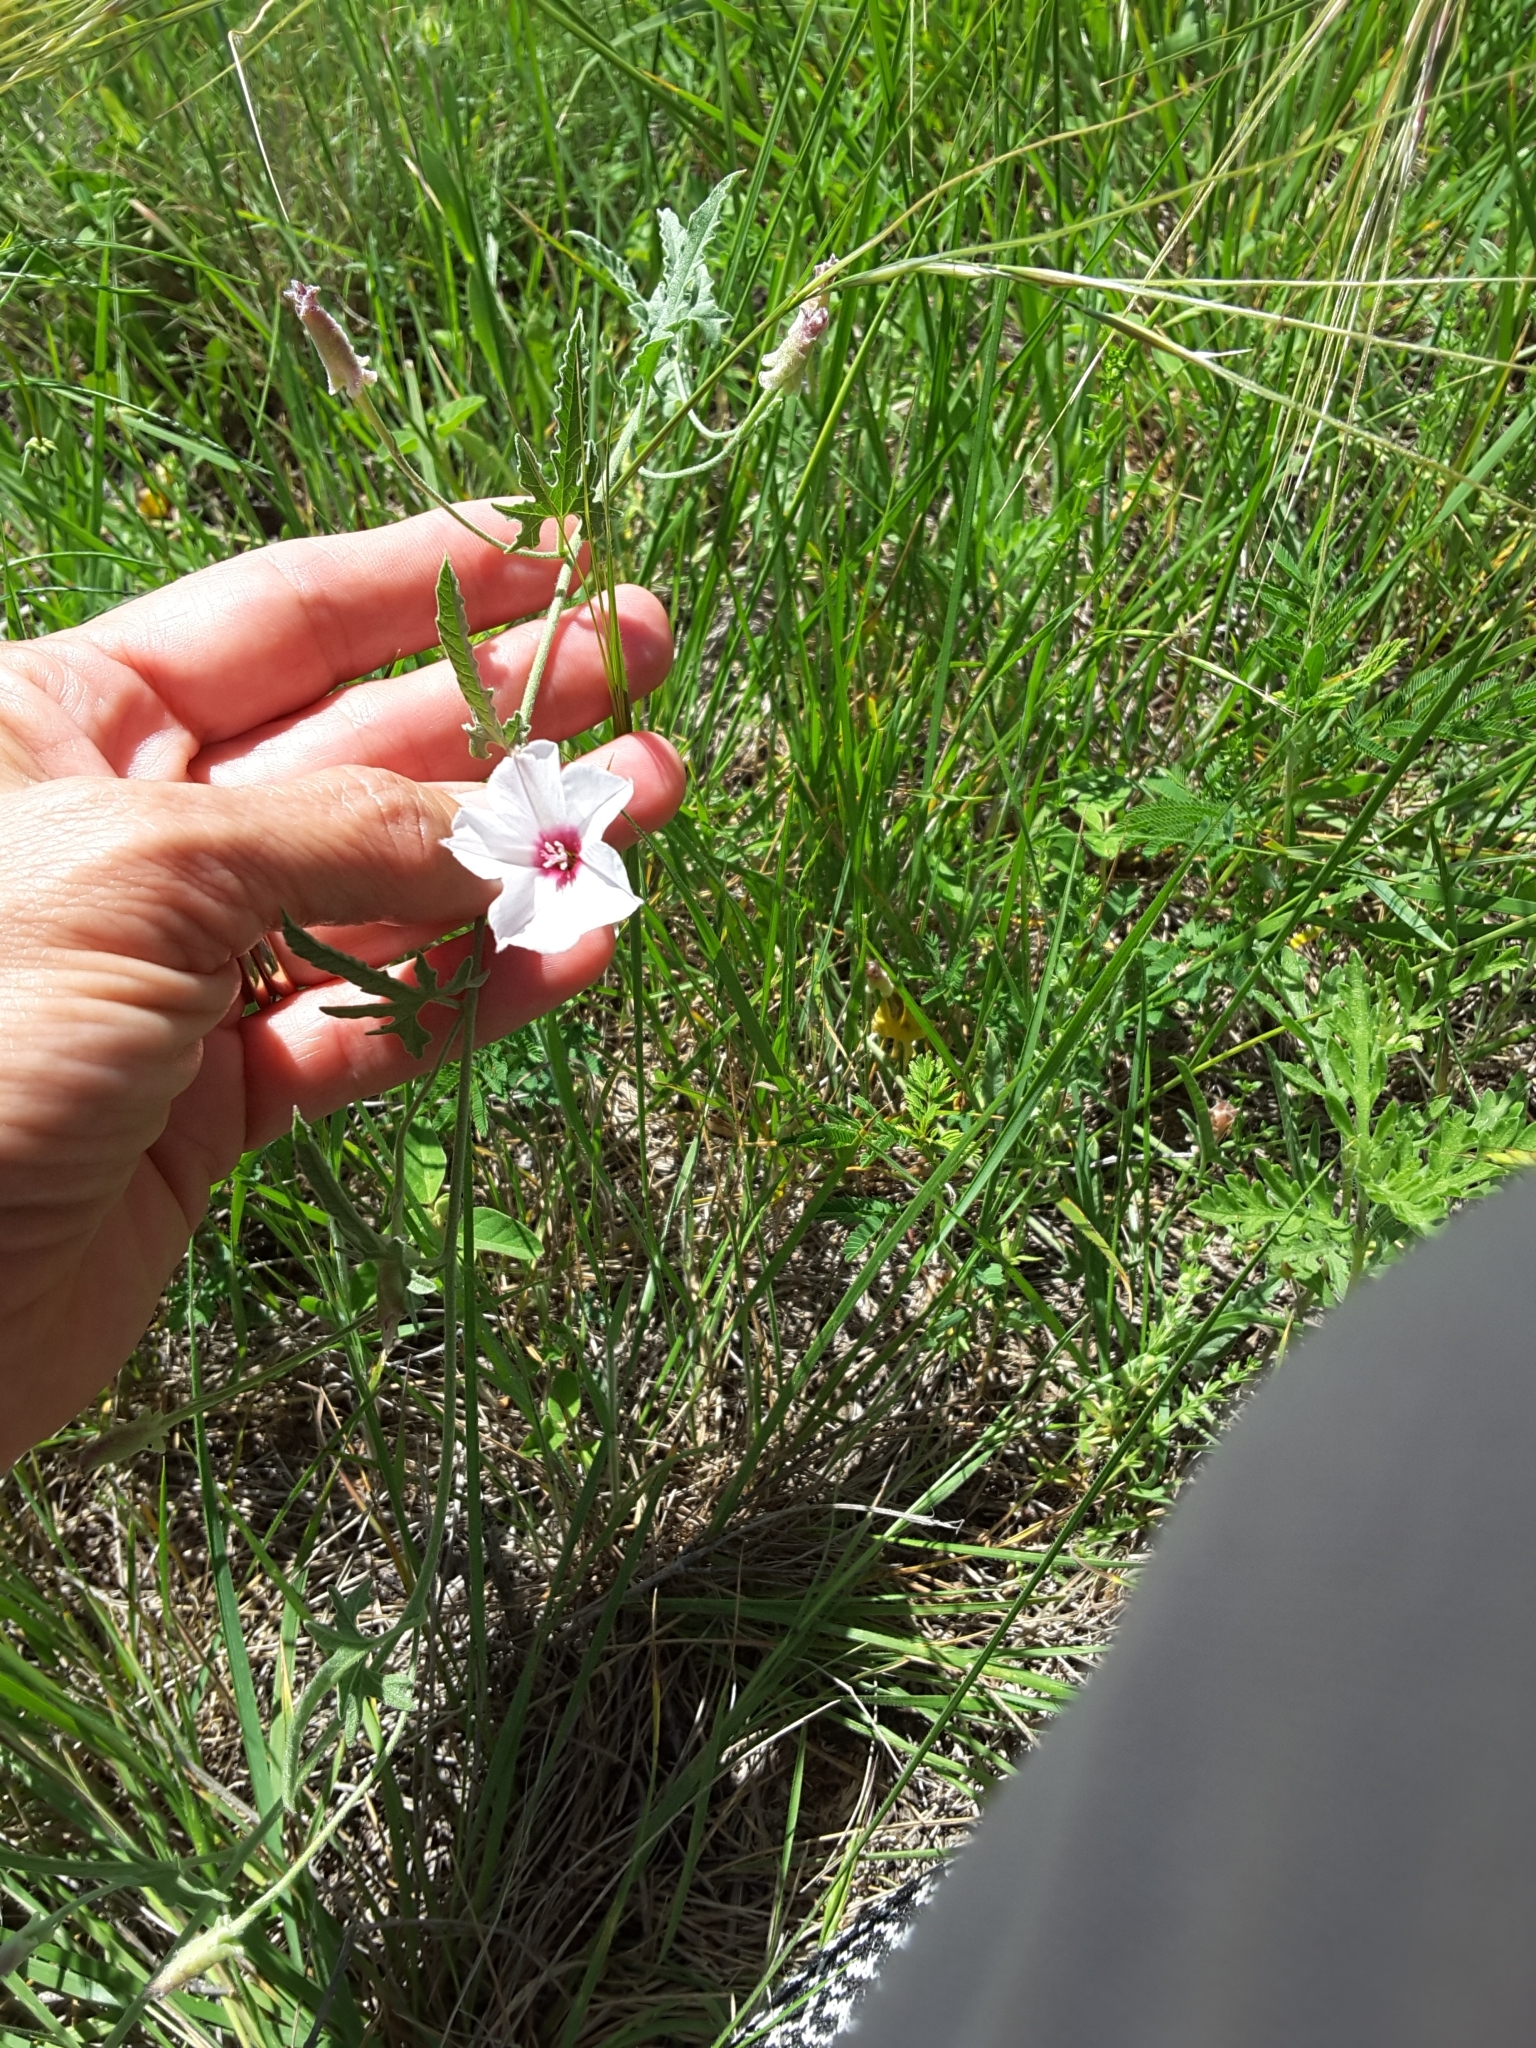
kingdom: Plantae
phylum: Tracheophyta
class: Magnoliopsida
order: Solanales
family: Convolvulaceae
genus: Convolvulus
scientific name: Convolvulus equitans
